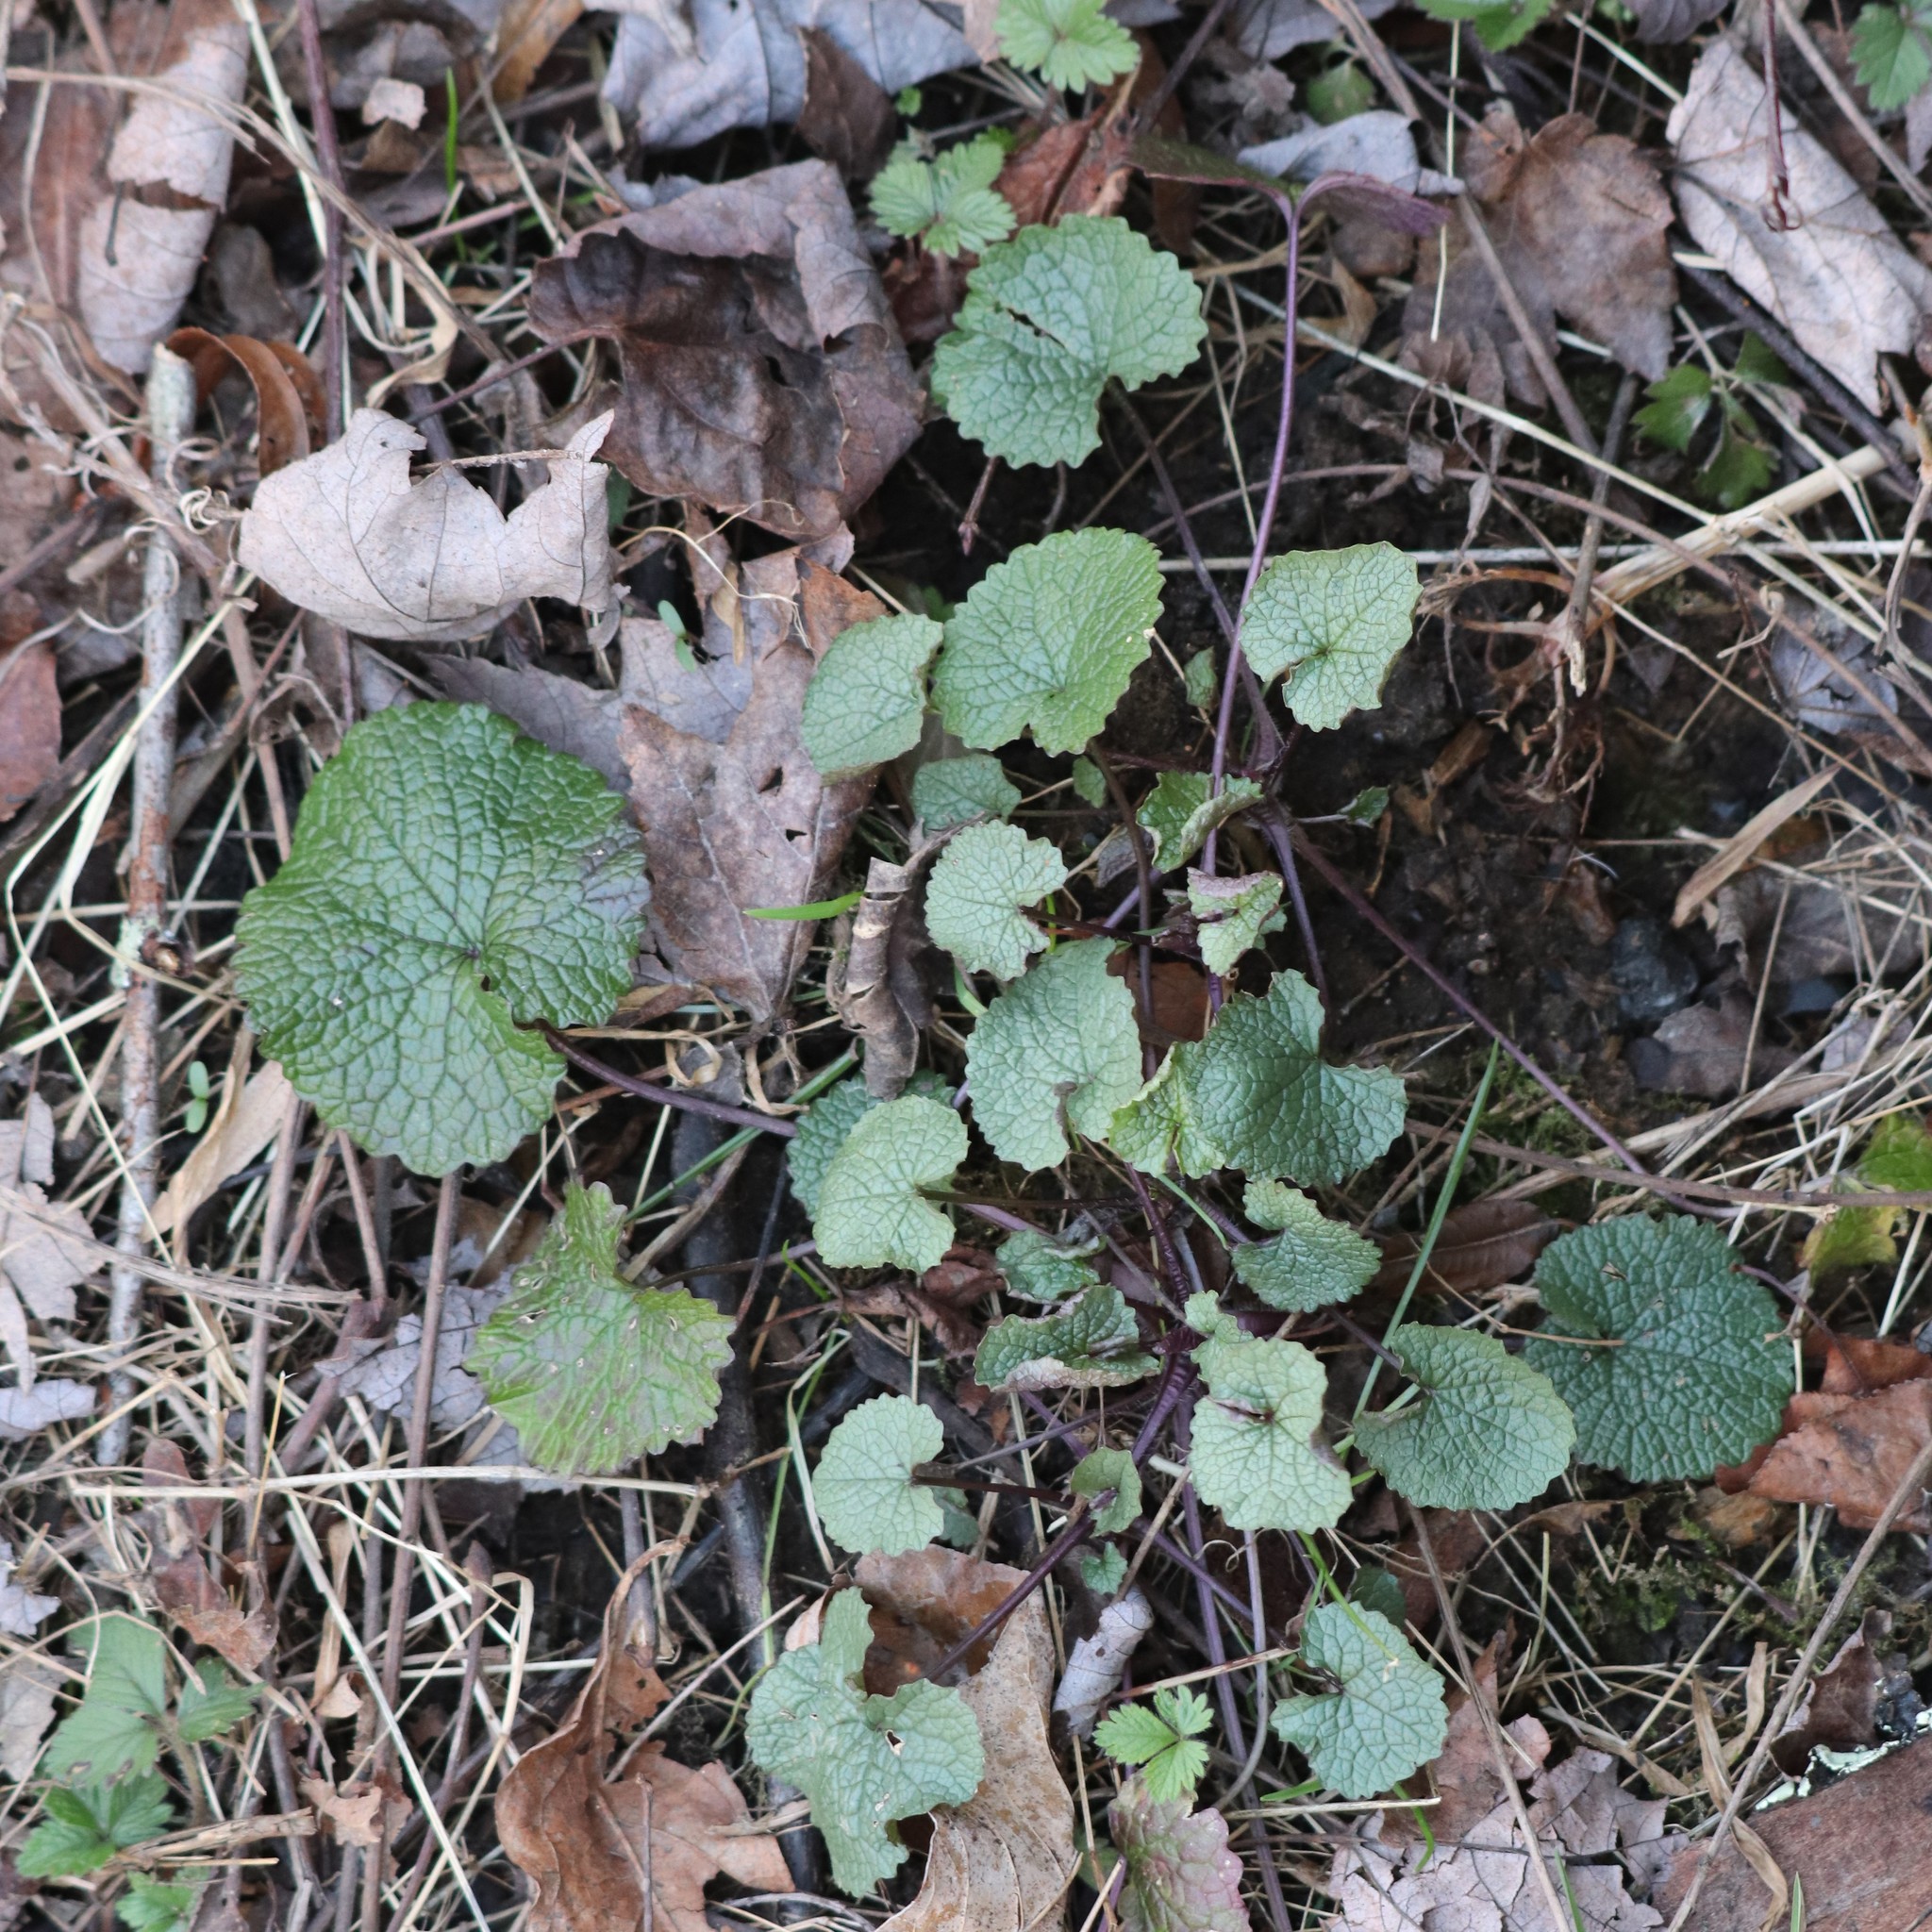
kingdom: Plantae
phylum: Tracheophyta
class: Magnoliopsida
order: Brassicales
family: Brassicaceae
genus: Alliaria
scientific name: Alliaria petiolata
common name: Garlic mustard
